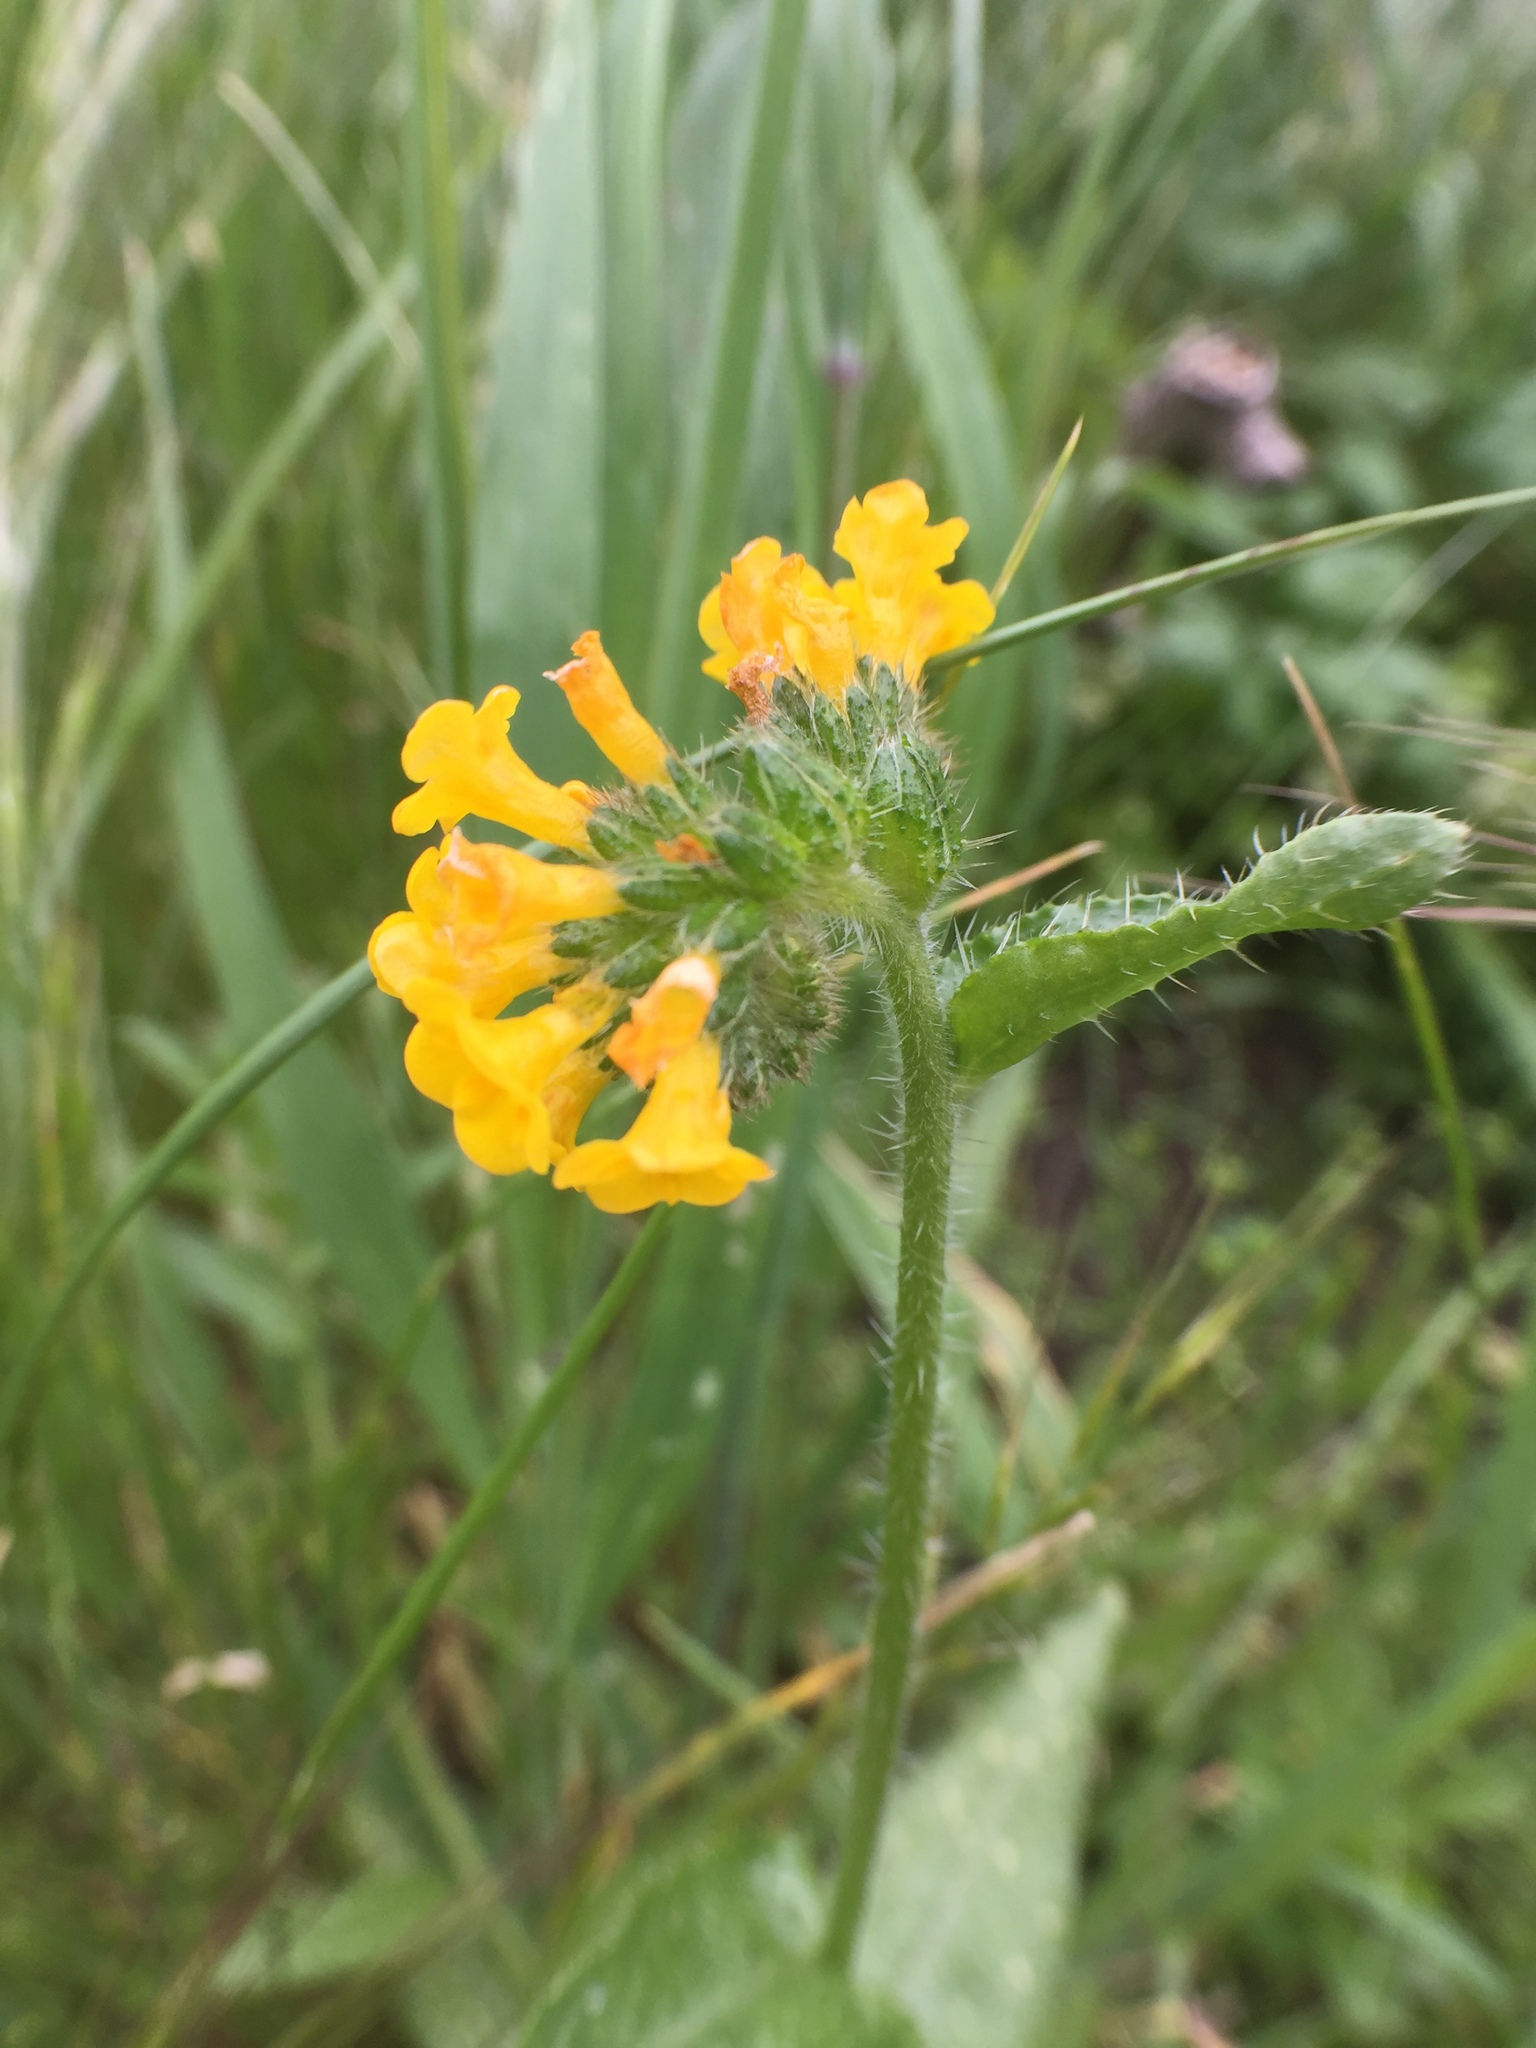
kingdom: Plantae
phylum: Tracheophyta
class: Magnoliopsida
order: Boraginales
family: Boraginaceae
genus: Amsinckia
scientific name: Amsinckia spectabilis
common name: Seaside fiddleneck
